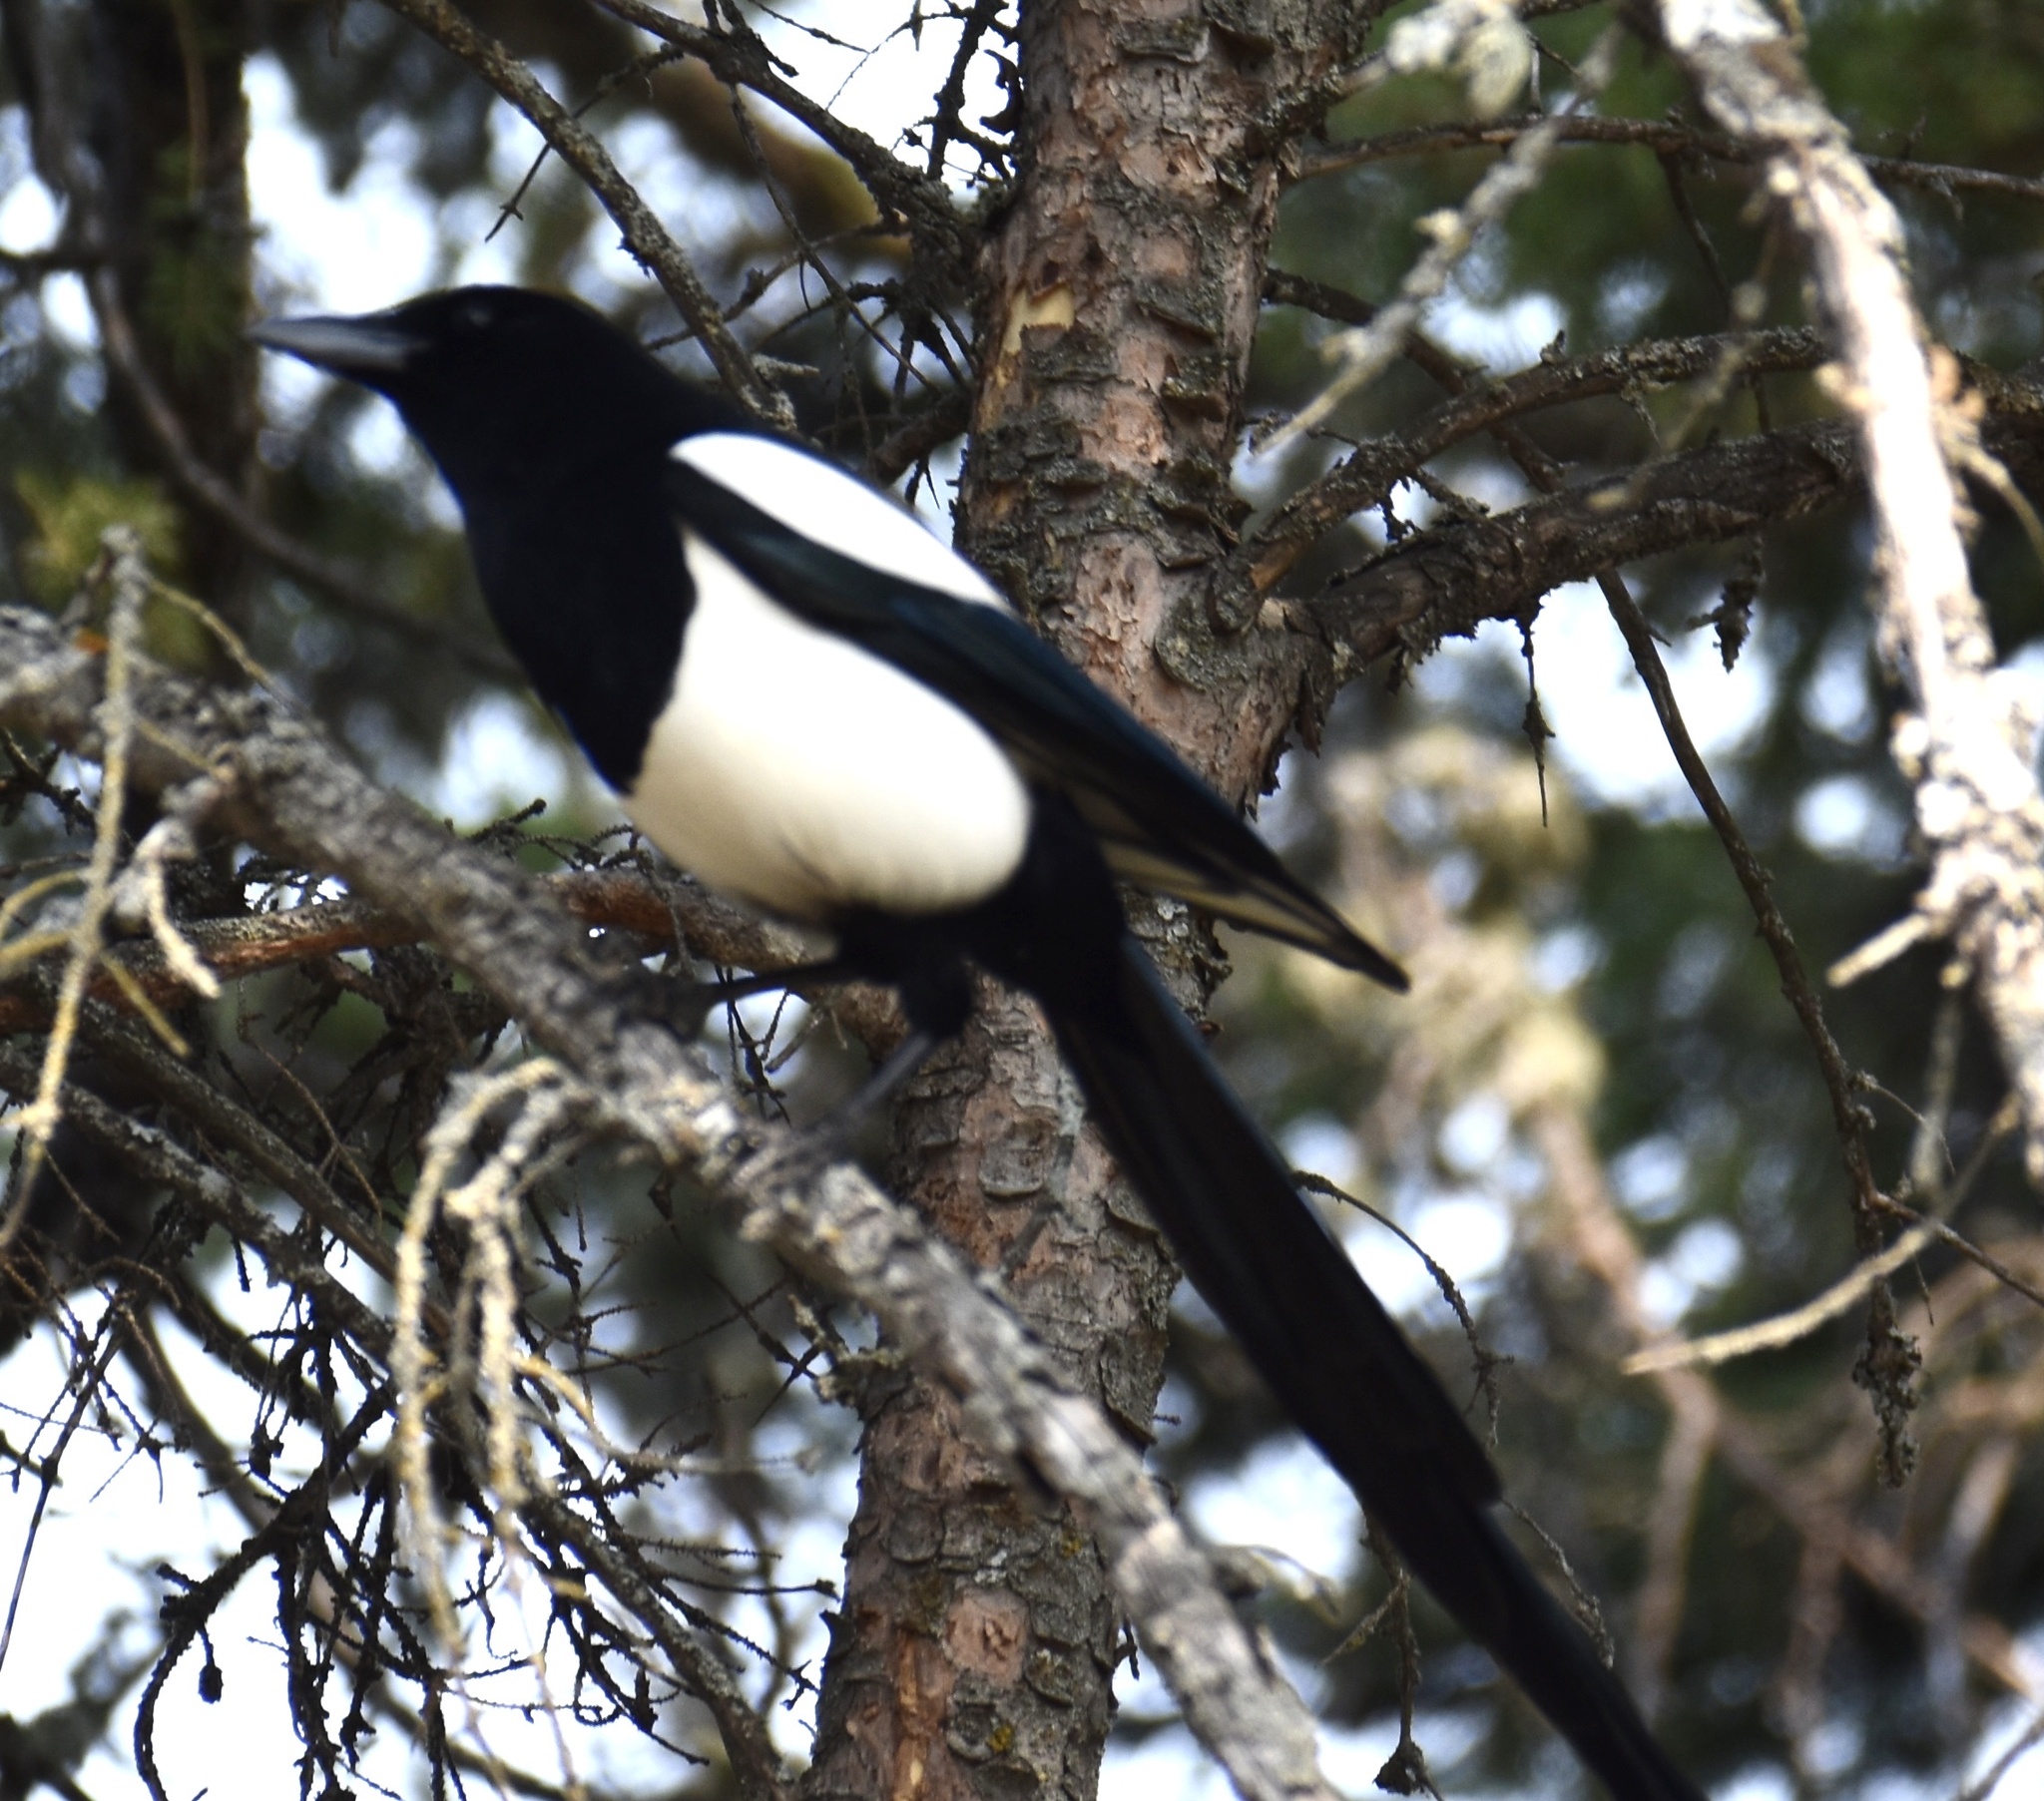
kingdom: Animalia
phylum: Chordata
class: Aves
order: Passeriformes
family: Corvidae
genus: Pica
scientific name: Pica hudsonia
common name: Black-billed magpie
